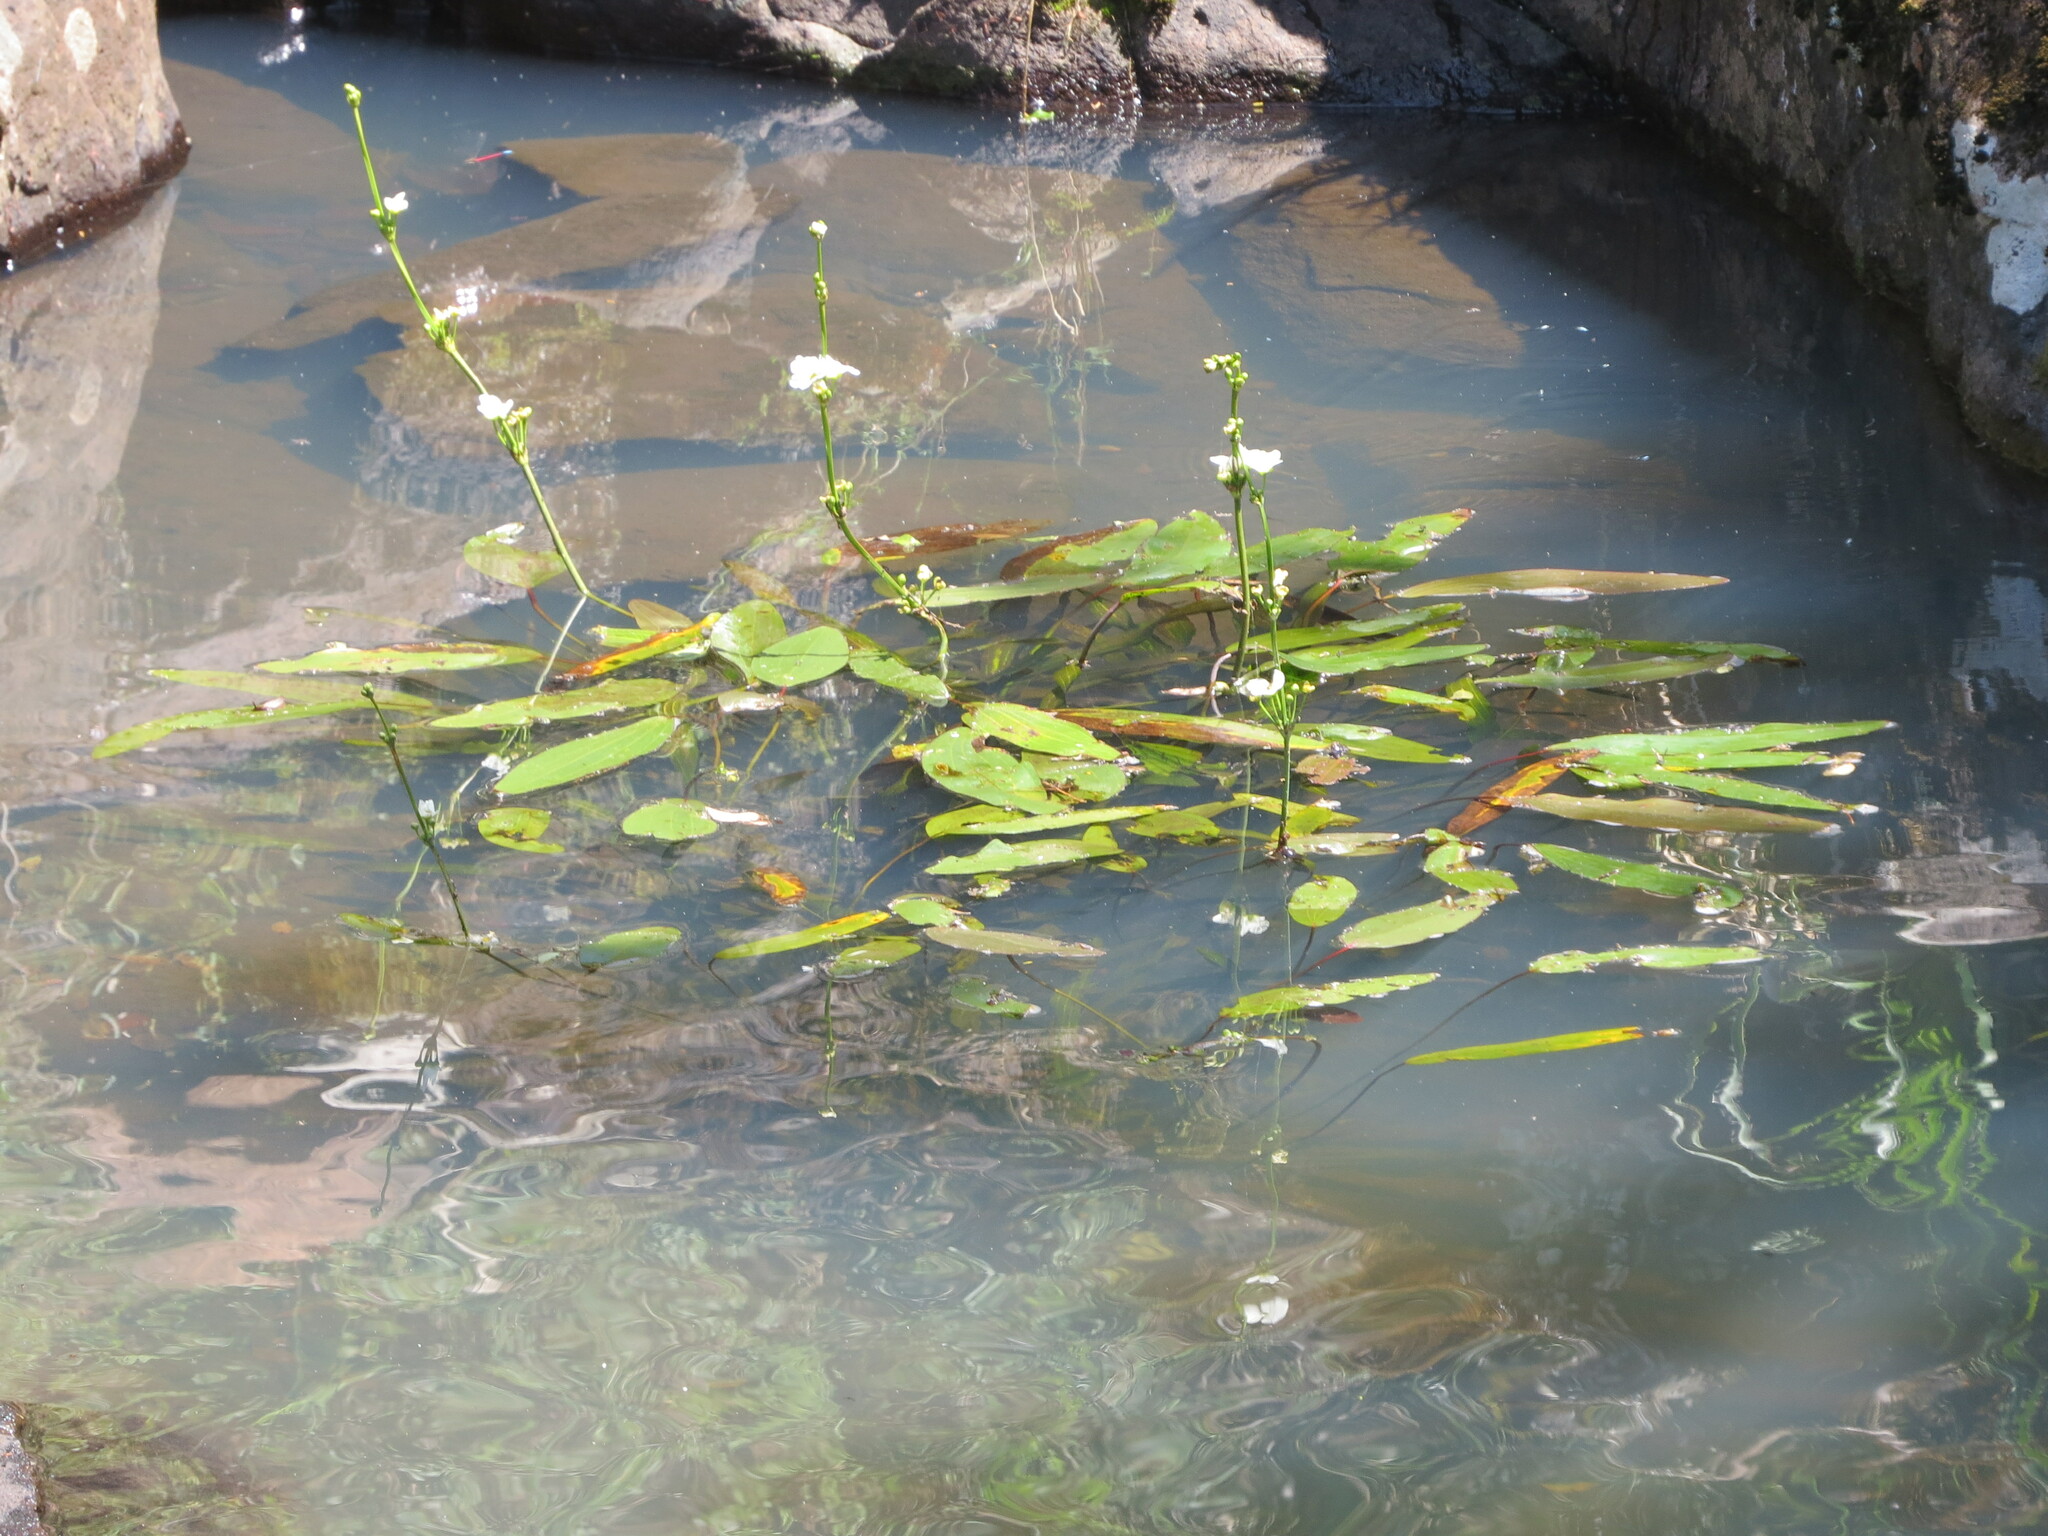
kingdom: Plantae
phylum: Tracheophyta
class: Liliopsida
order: Alismatales
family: Alismataceae
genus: Aquarius
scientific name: Aquarius uruguayensis
